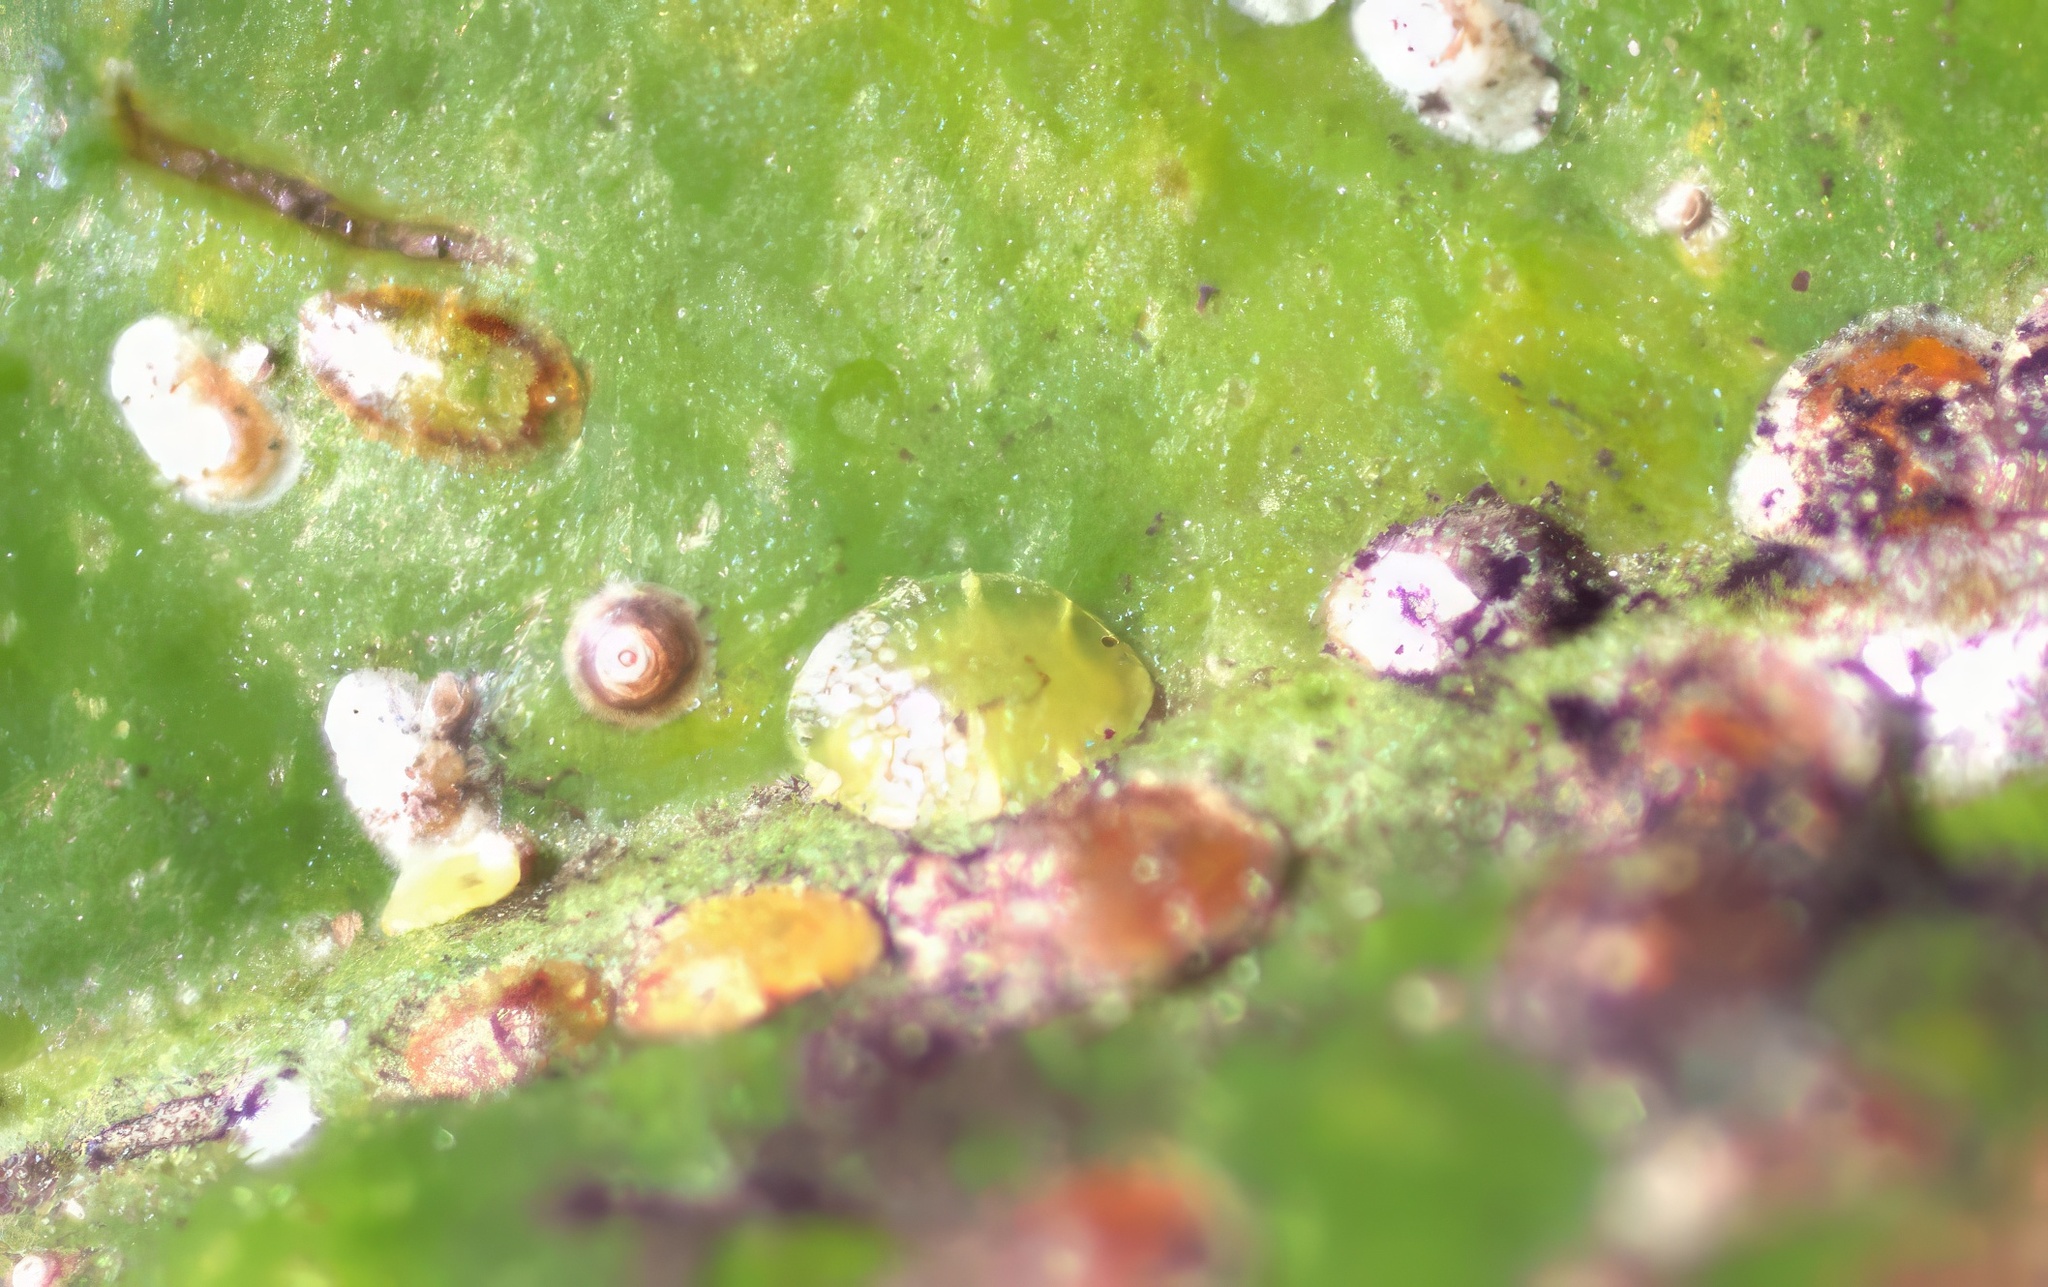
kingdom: Animalia
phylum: Arthropoda
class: Insecta
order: Hemiptera
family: Coccidae
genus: Coccus
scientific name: Coccus viridis
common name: Green scale
